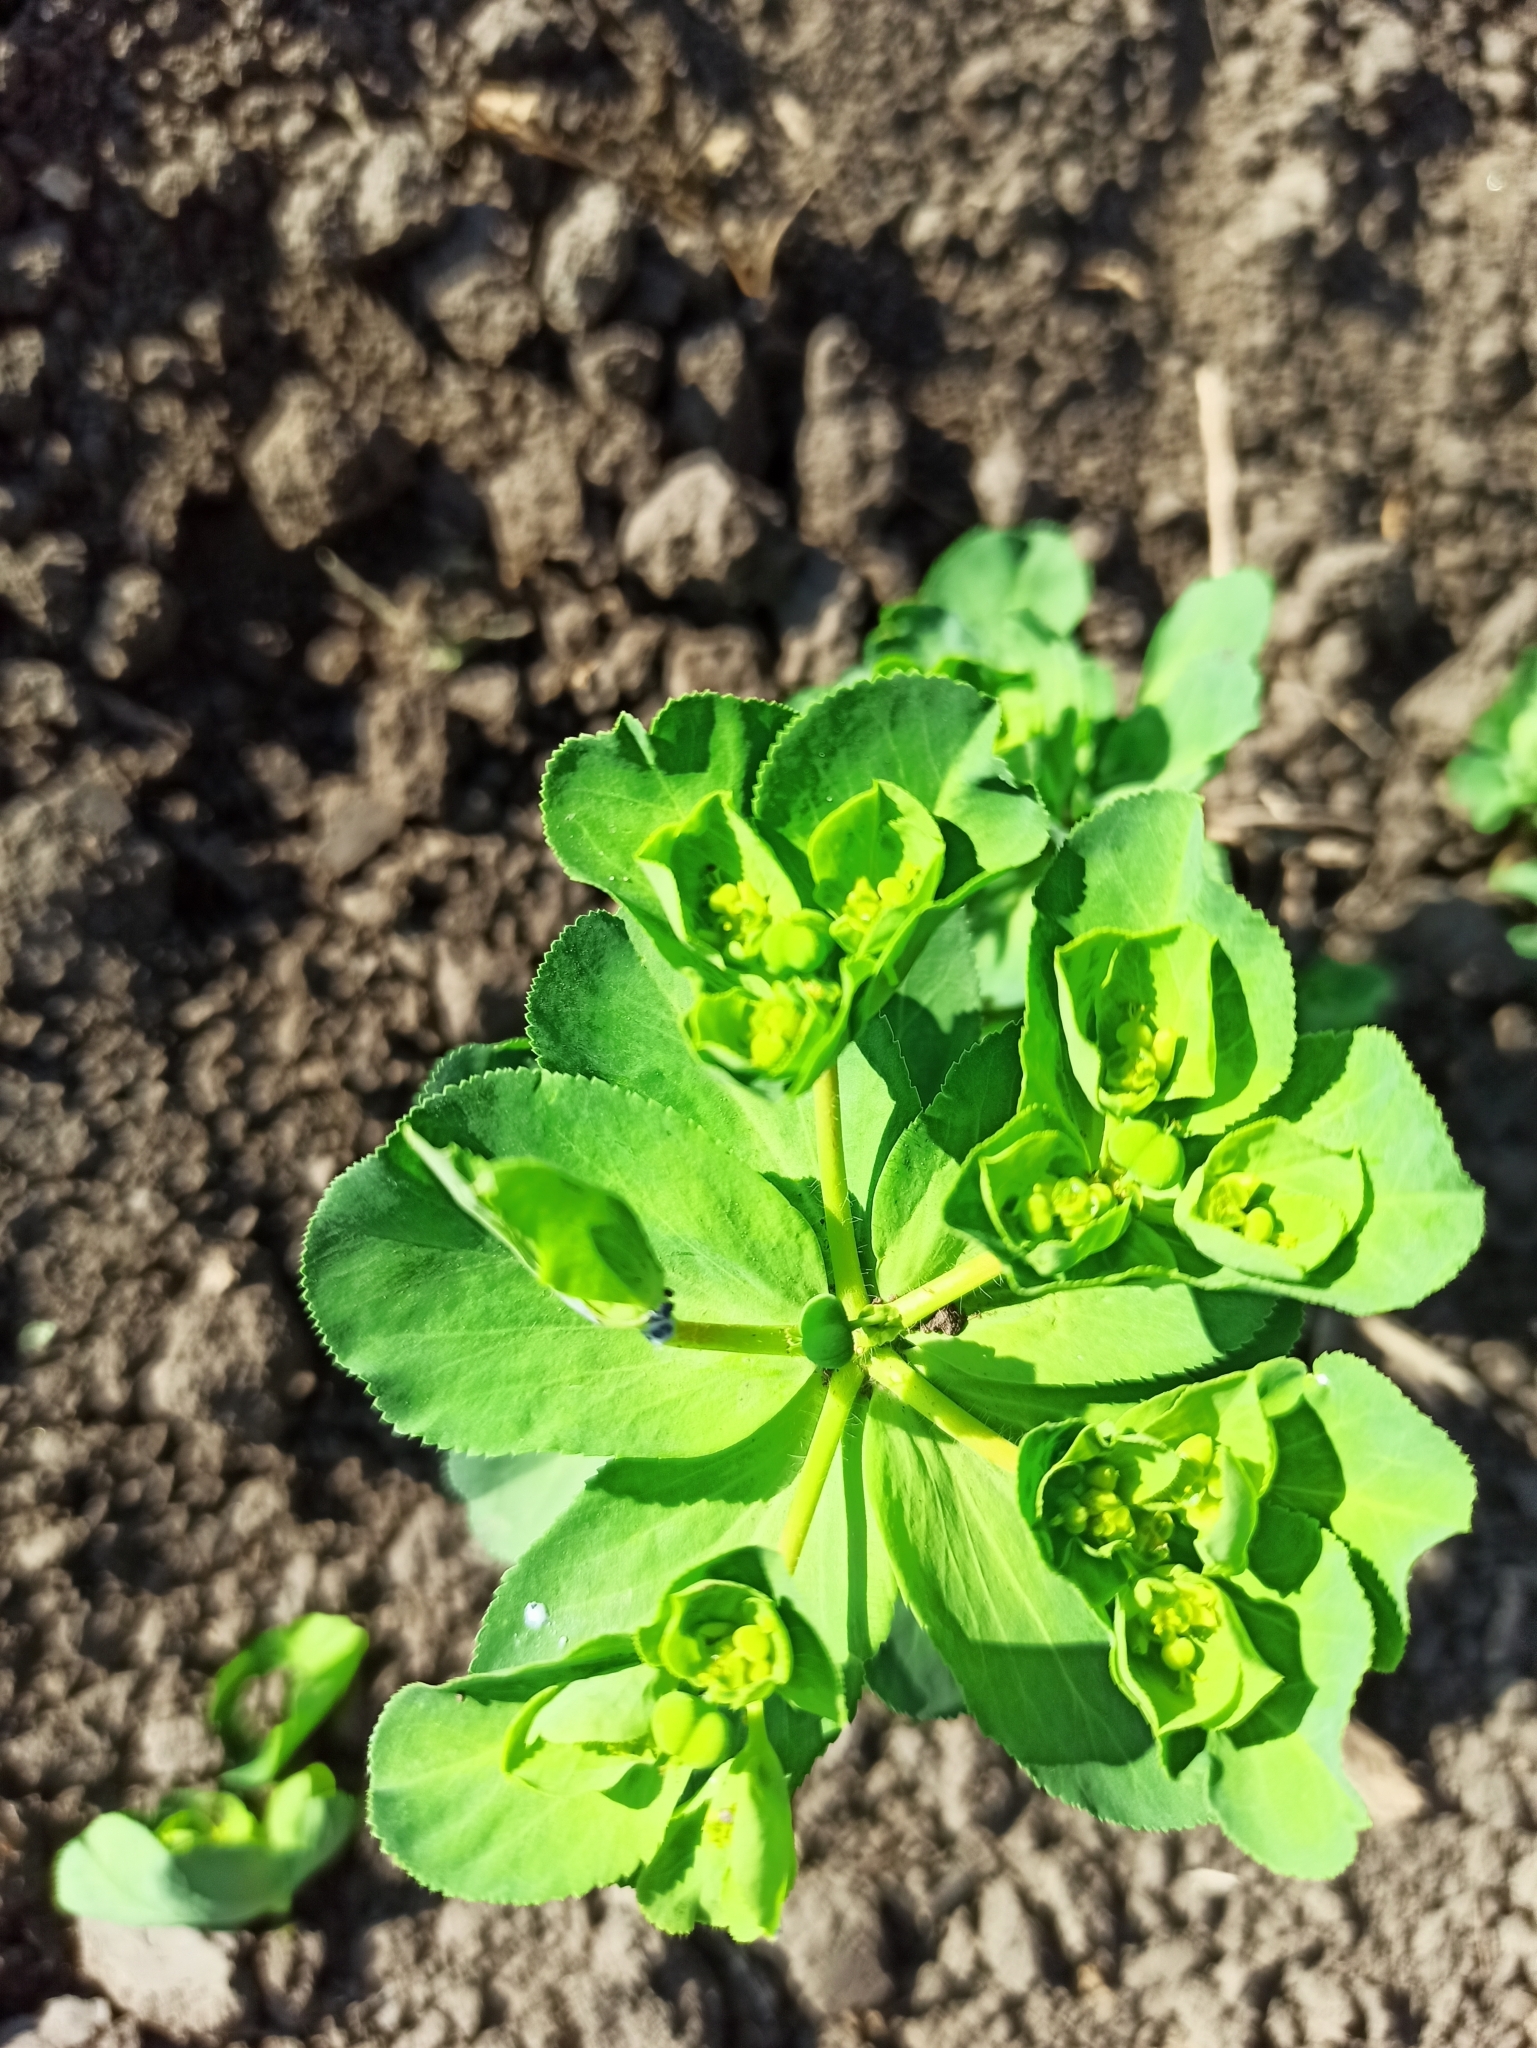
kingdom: Plantae
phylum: Tracheophyta
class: Magnoliopsida
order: Malpighiales
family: Euphorbiaceae
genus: Euphorbia
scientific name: Euphorbia helioscopia
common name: Sun spurge
